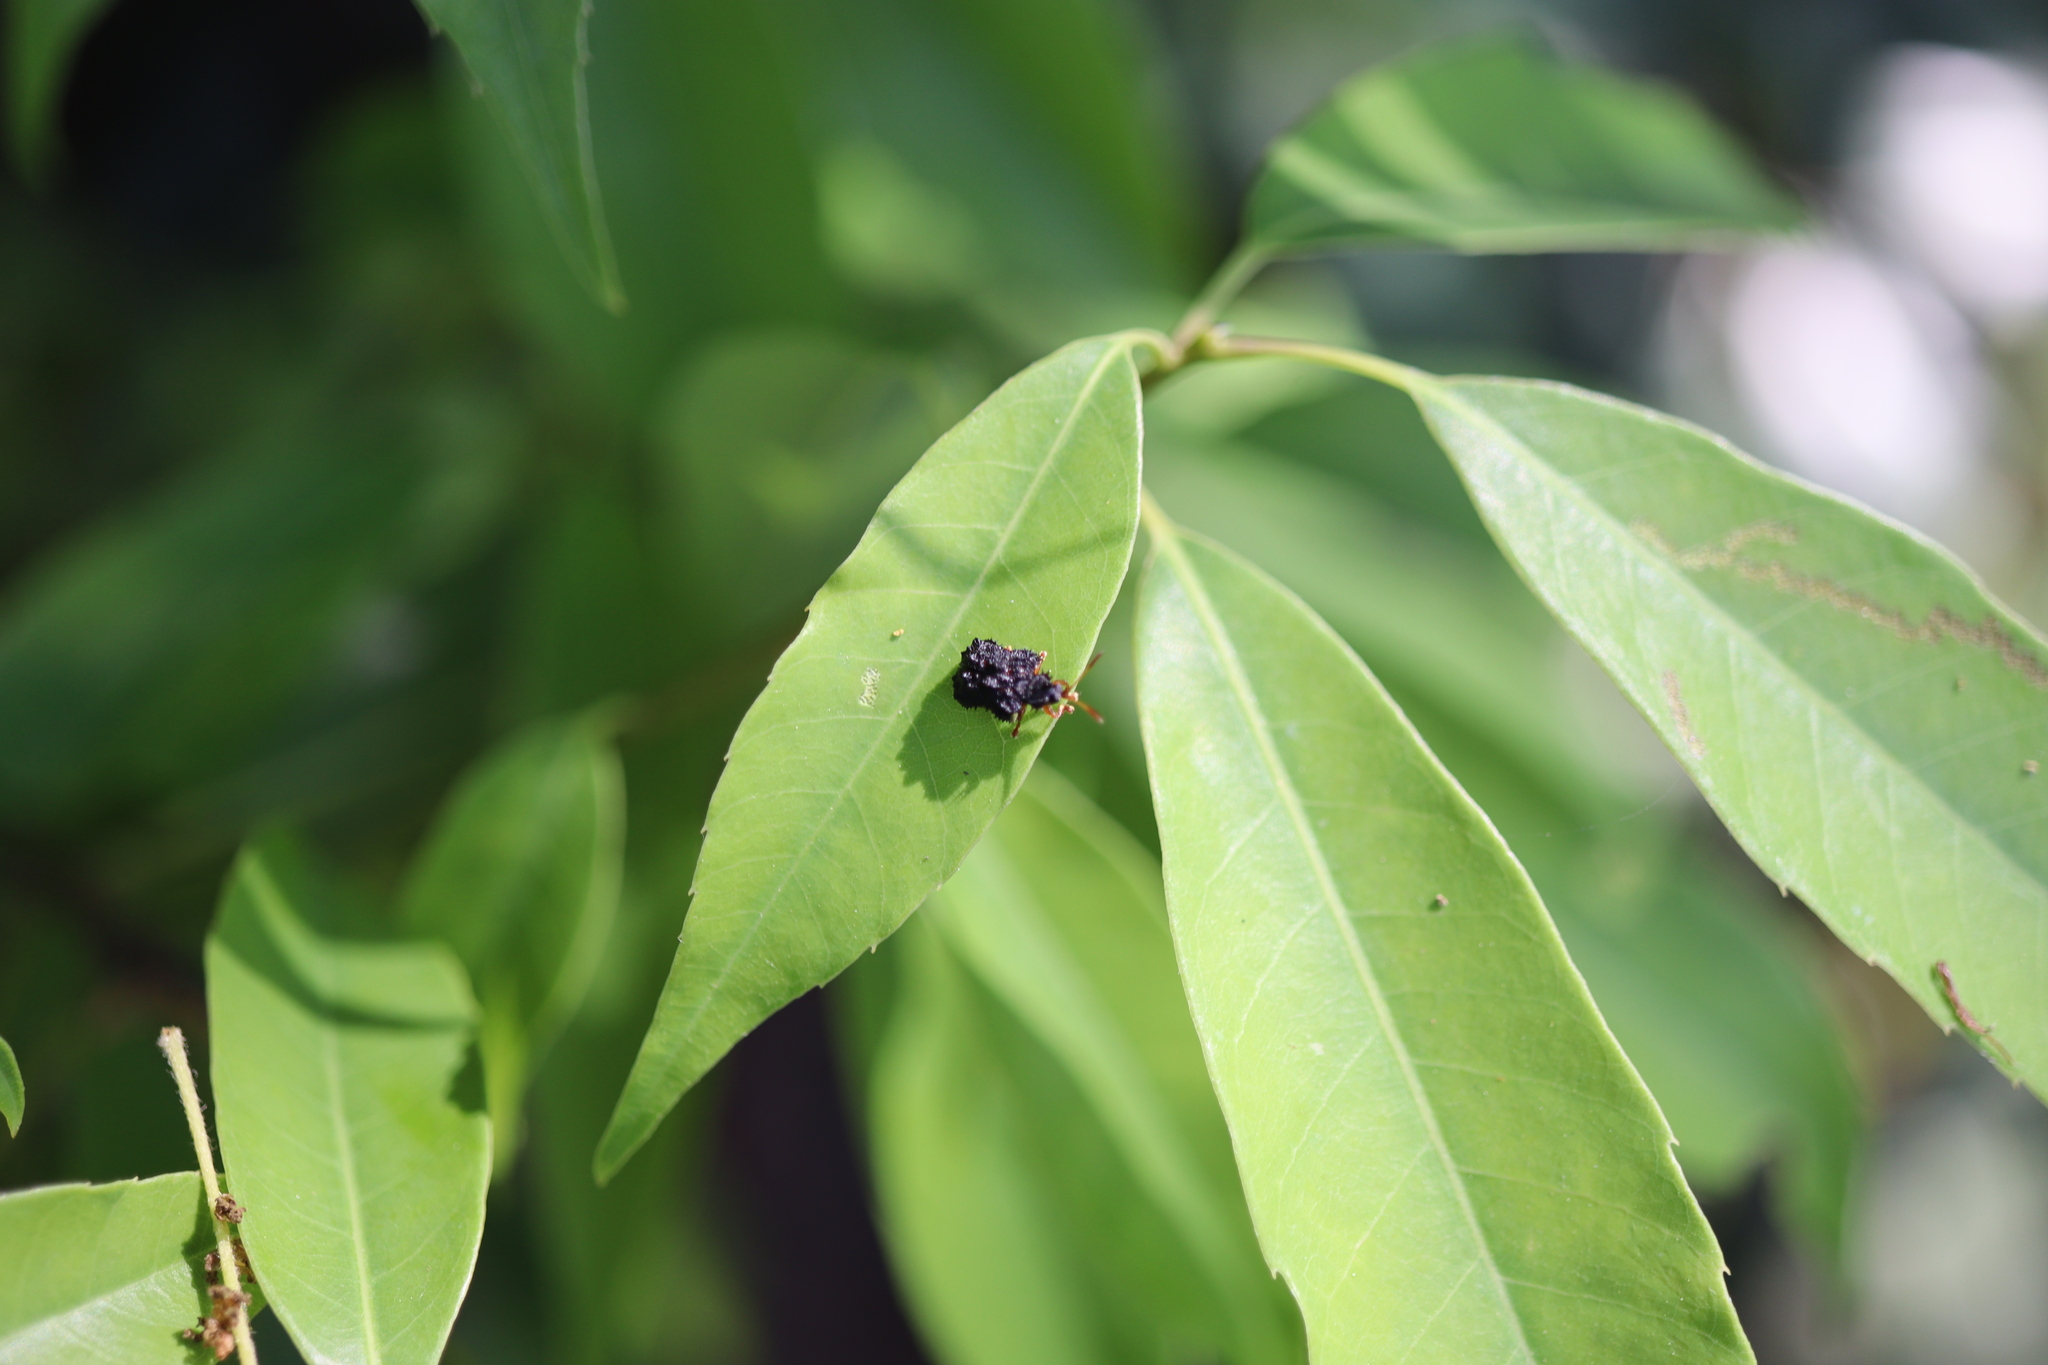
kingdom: Animalia
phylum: Arthropoda
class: Insecta
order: Coleoptera
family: Chrysomelidae
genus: Dactylispa
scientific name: Dactylispa subquadrata
